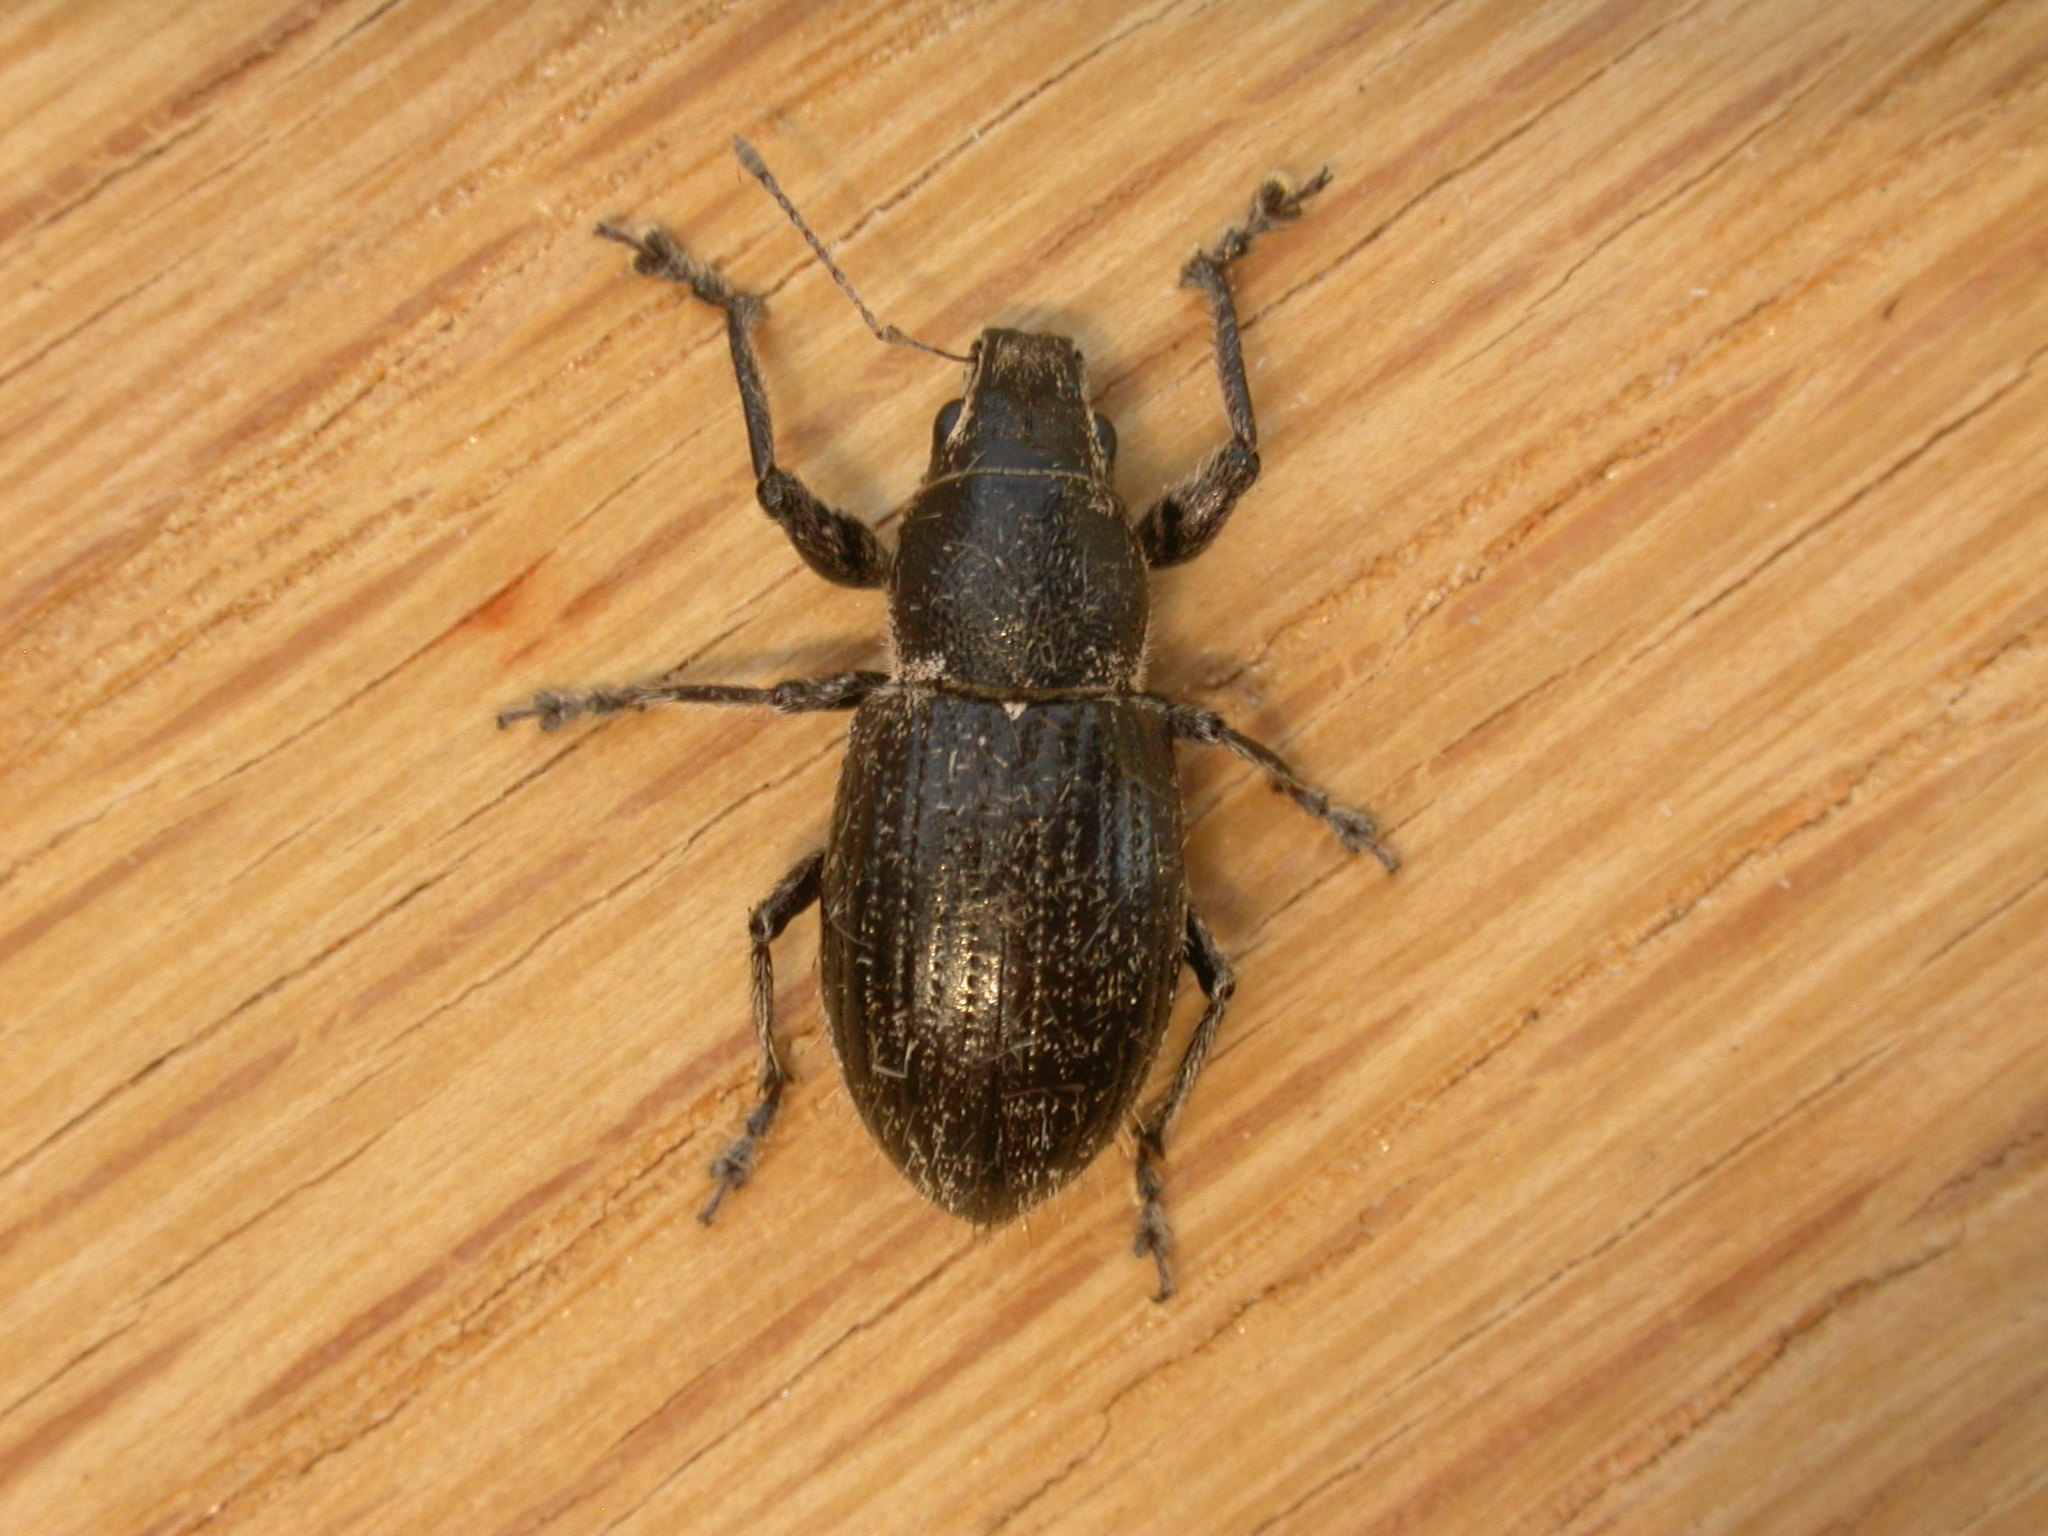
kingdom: Animalia
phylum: Arthropoda
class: Insecta
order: Coleoptera
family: Curculionidae
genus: Naupactus
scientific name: Naupactus leucoloma
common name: Whitefringed beetle
